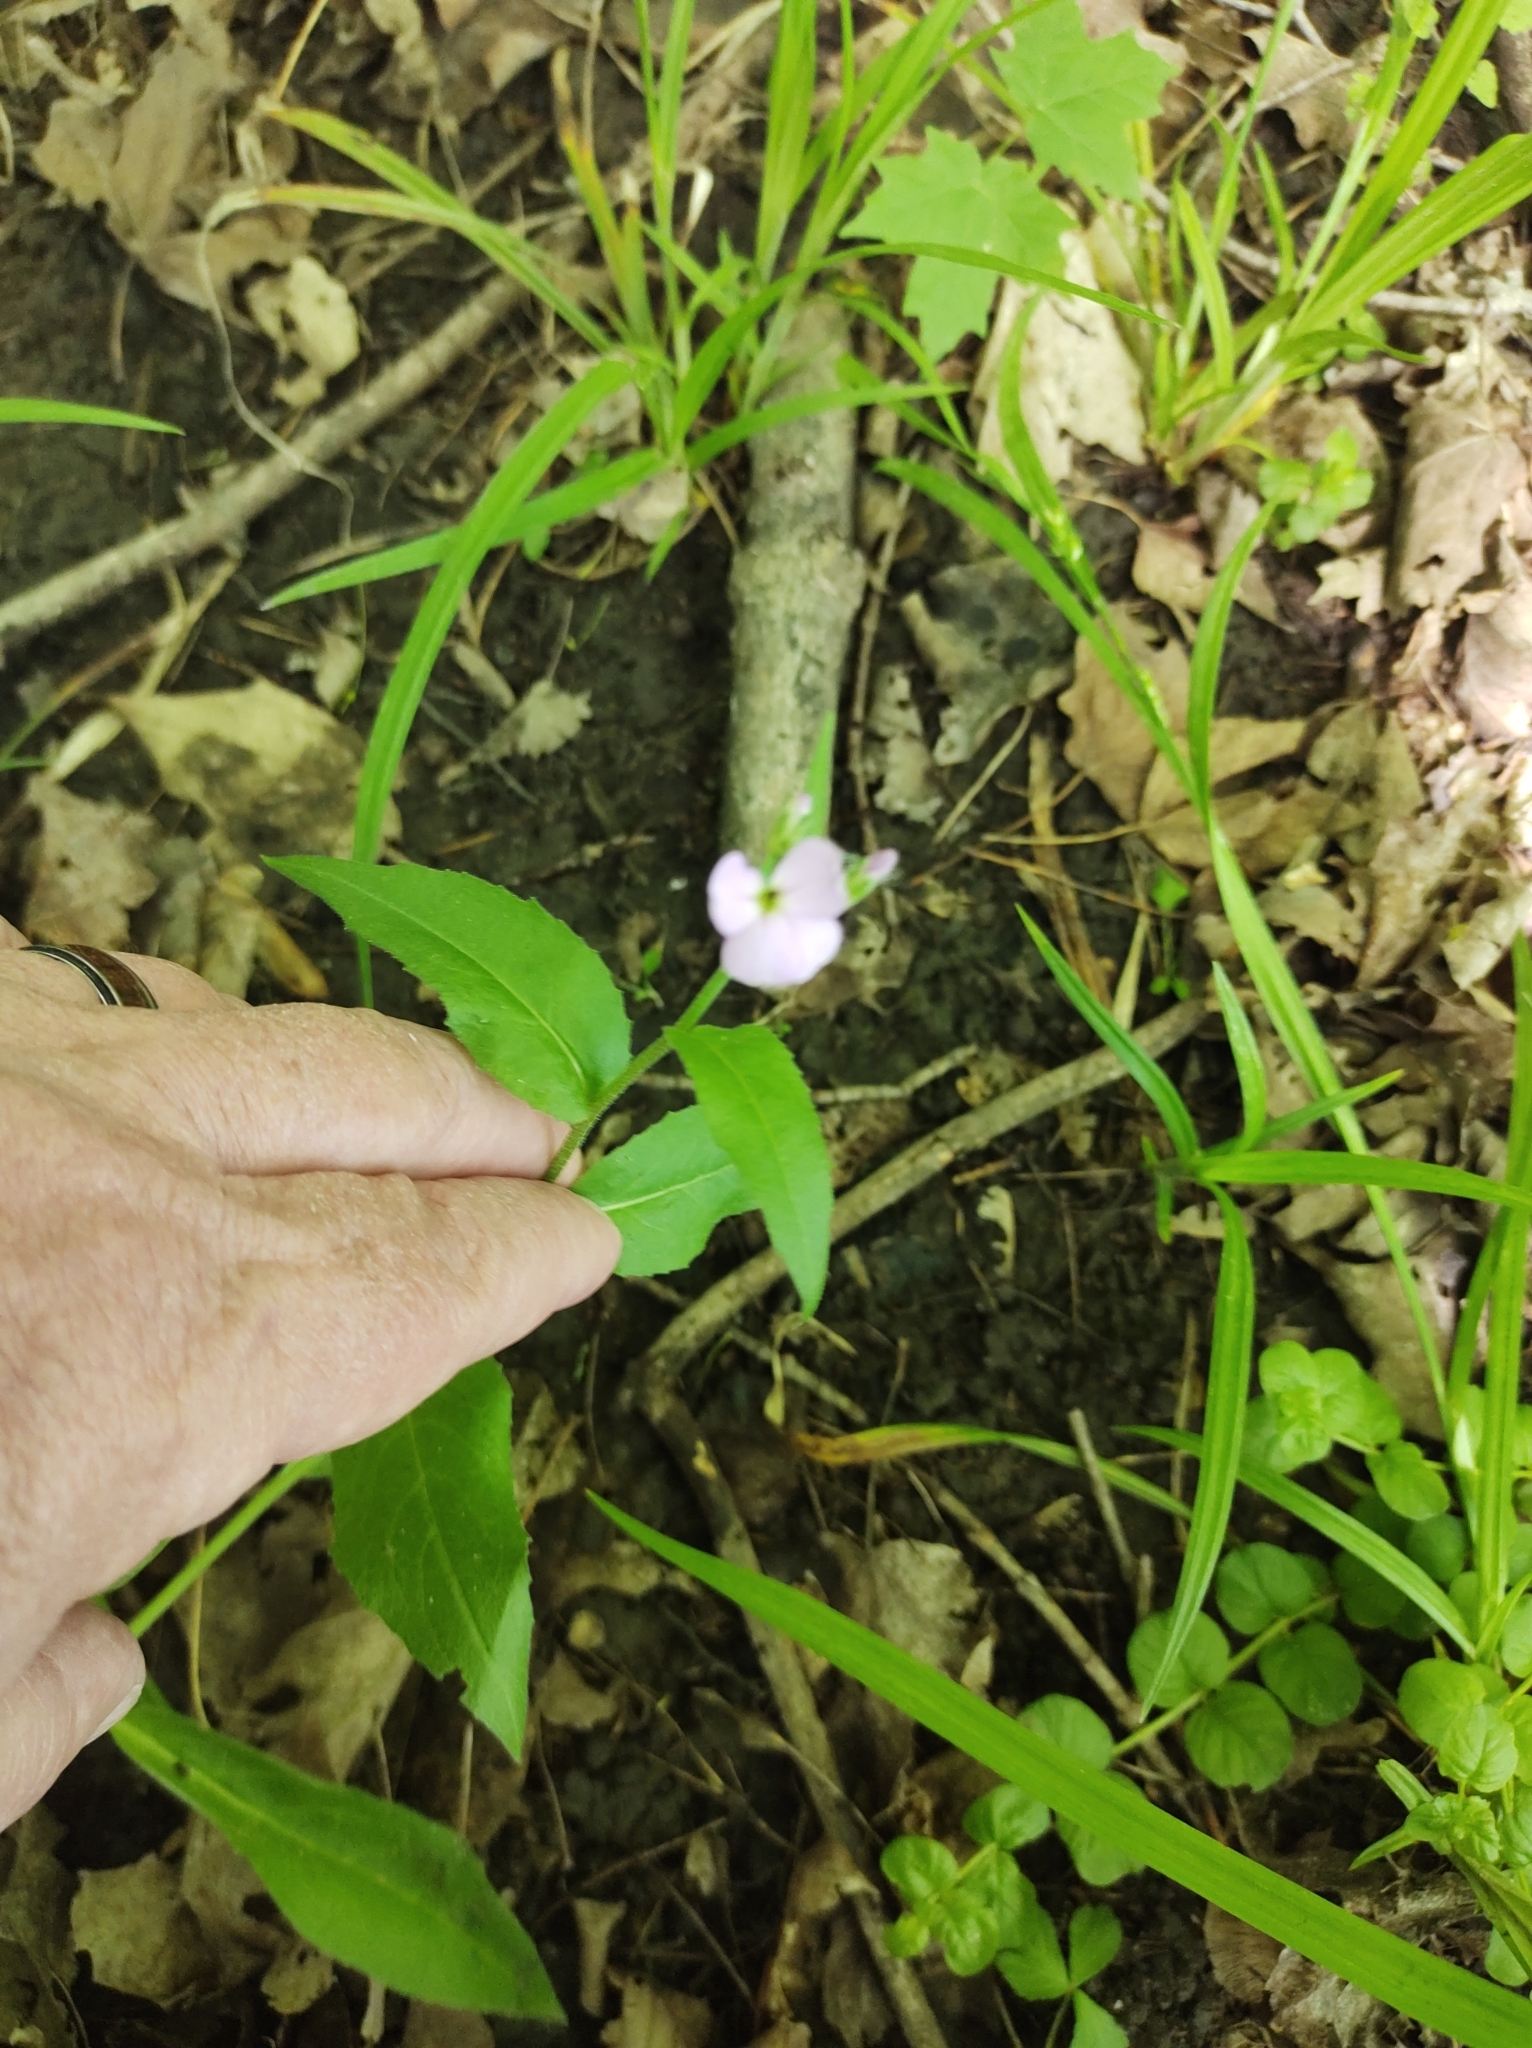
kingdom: Plantae
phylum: Tracheophyta
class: Magnoliopsida
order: Brassicales
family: Brassicaceae
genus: Hesperis
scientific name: Hesperis matronalis
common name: Dame's-violet
